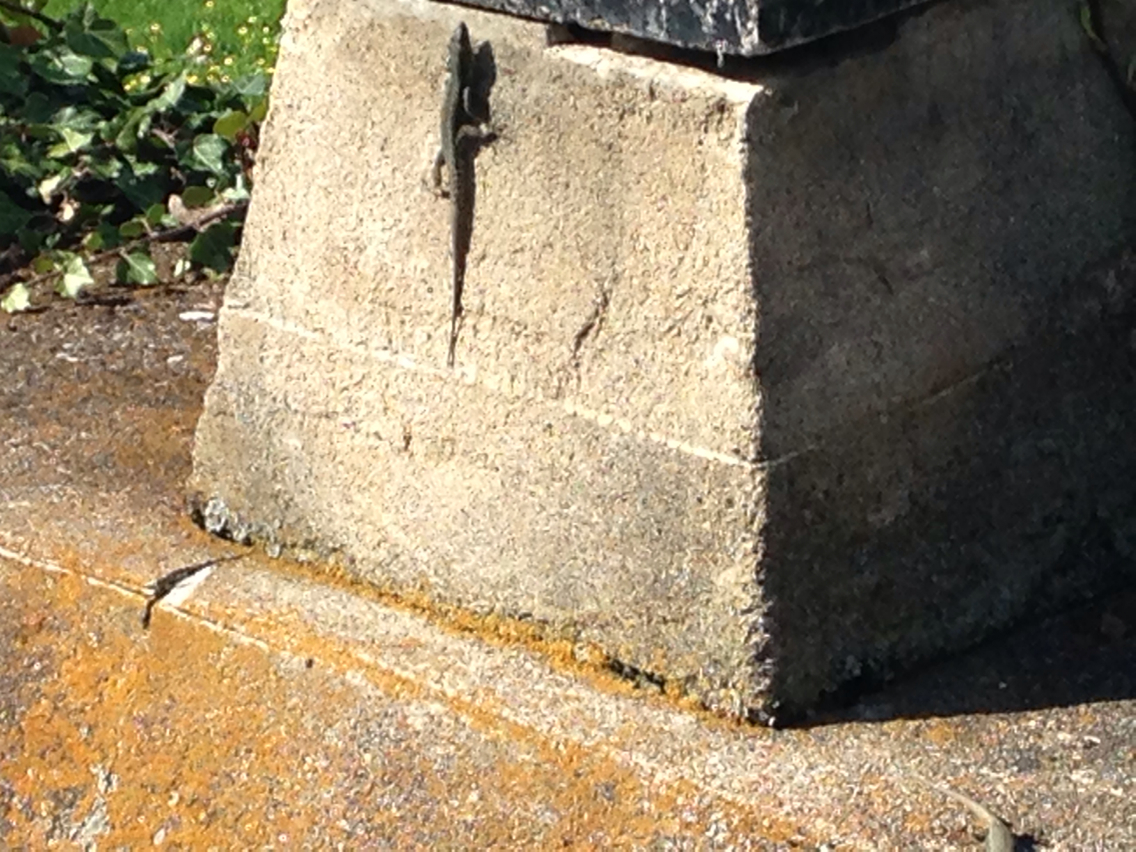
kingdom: Animalia
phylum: Chordata
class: Squamata
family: Lacertidae
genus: Podarcis
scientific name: Podarcis muralis
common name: Common wall lizard
